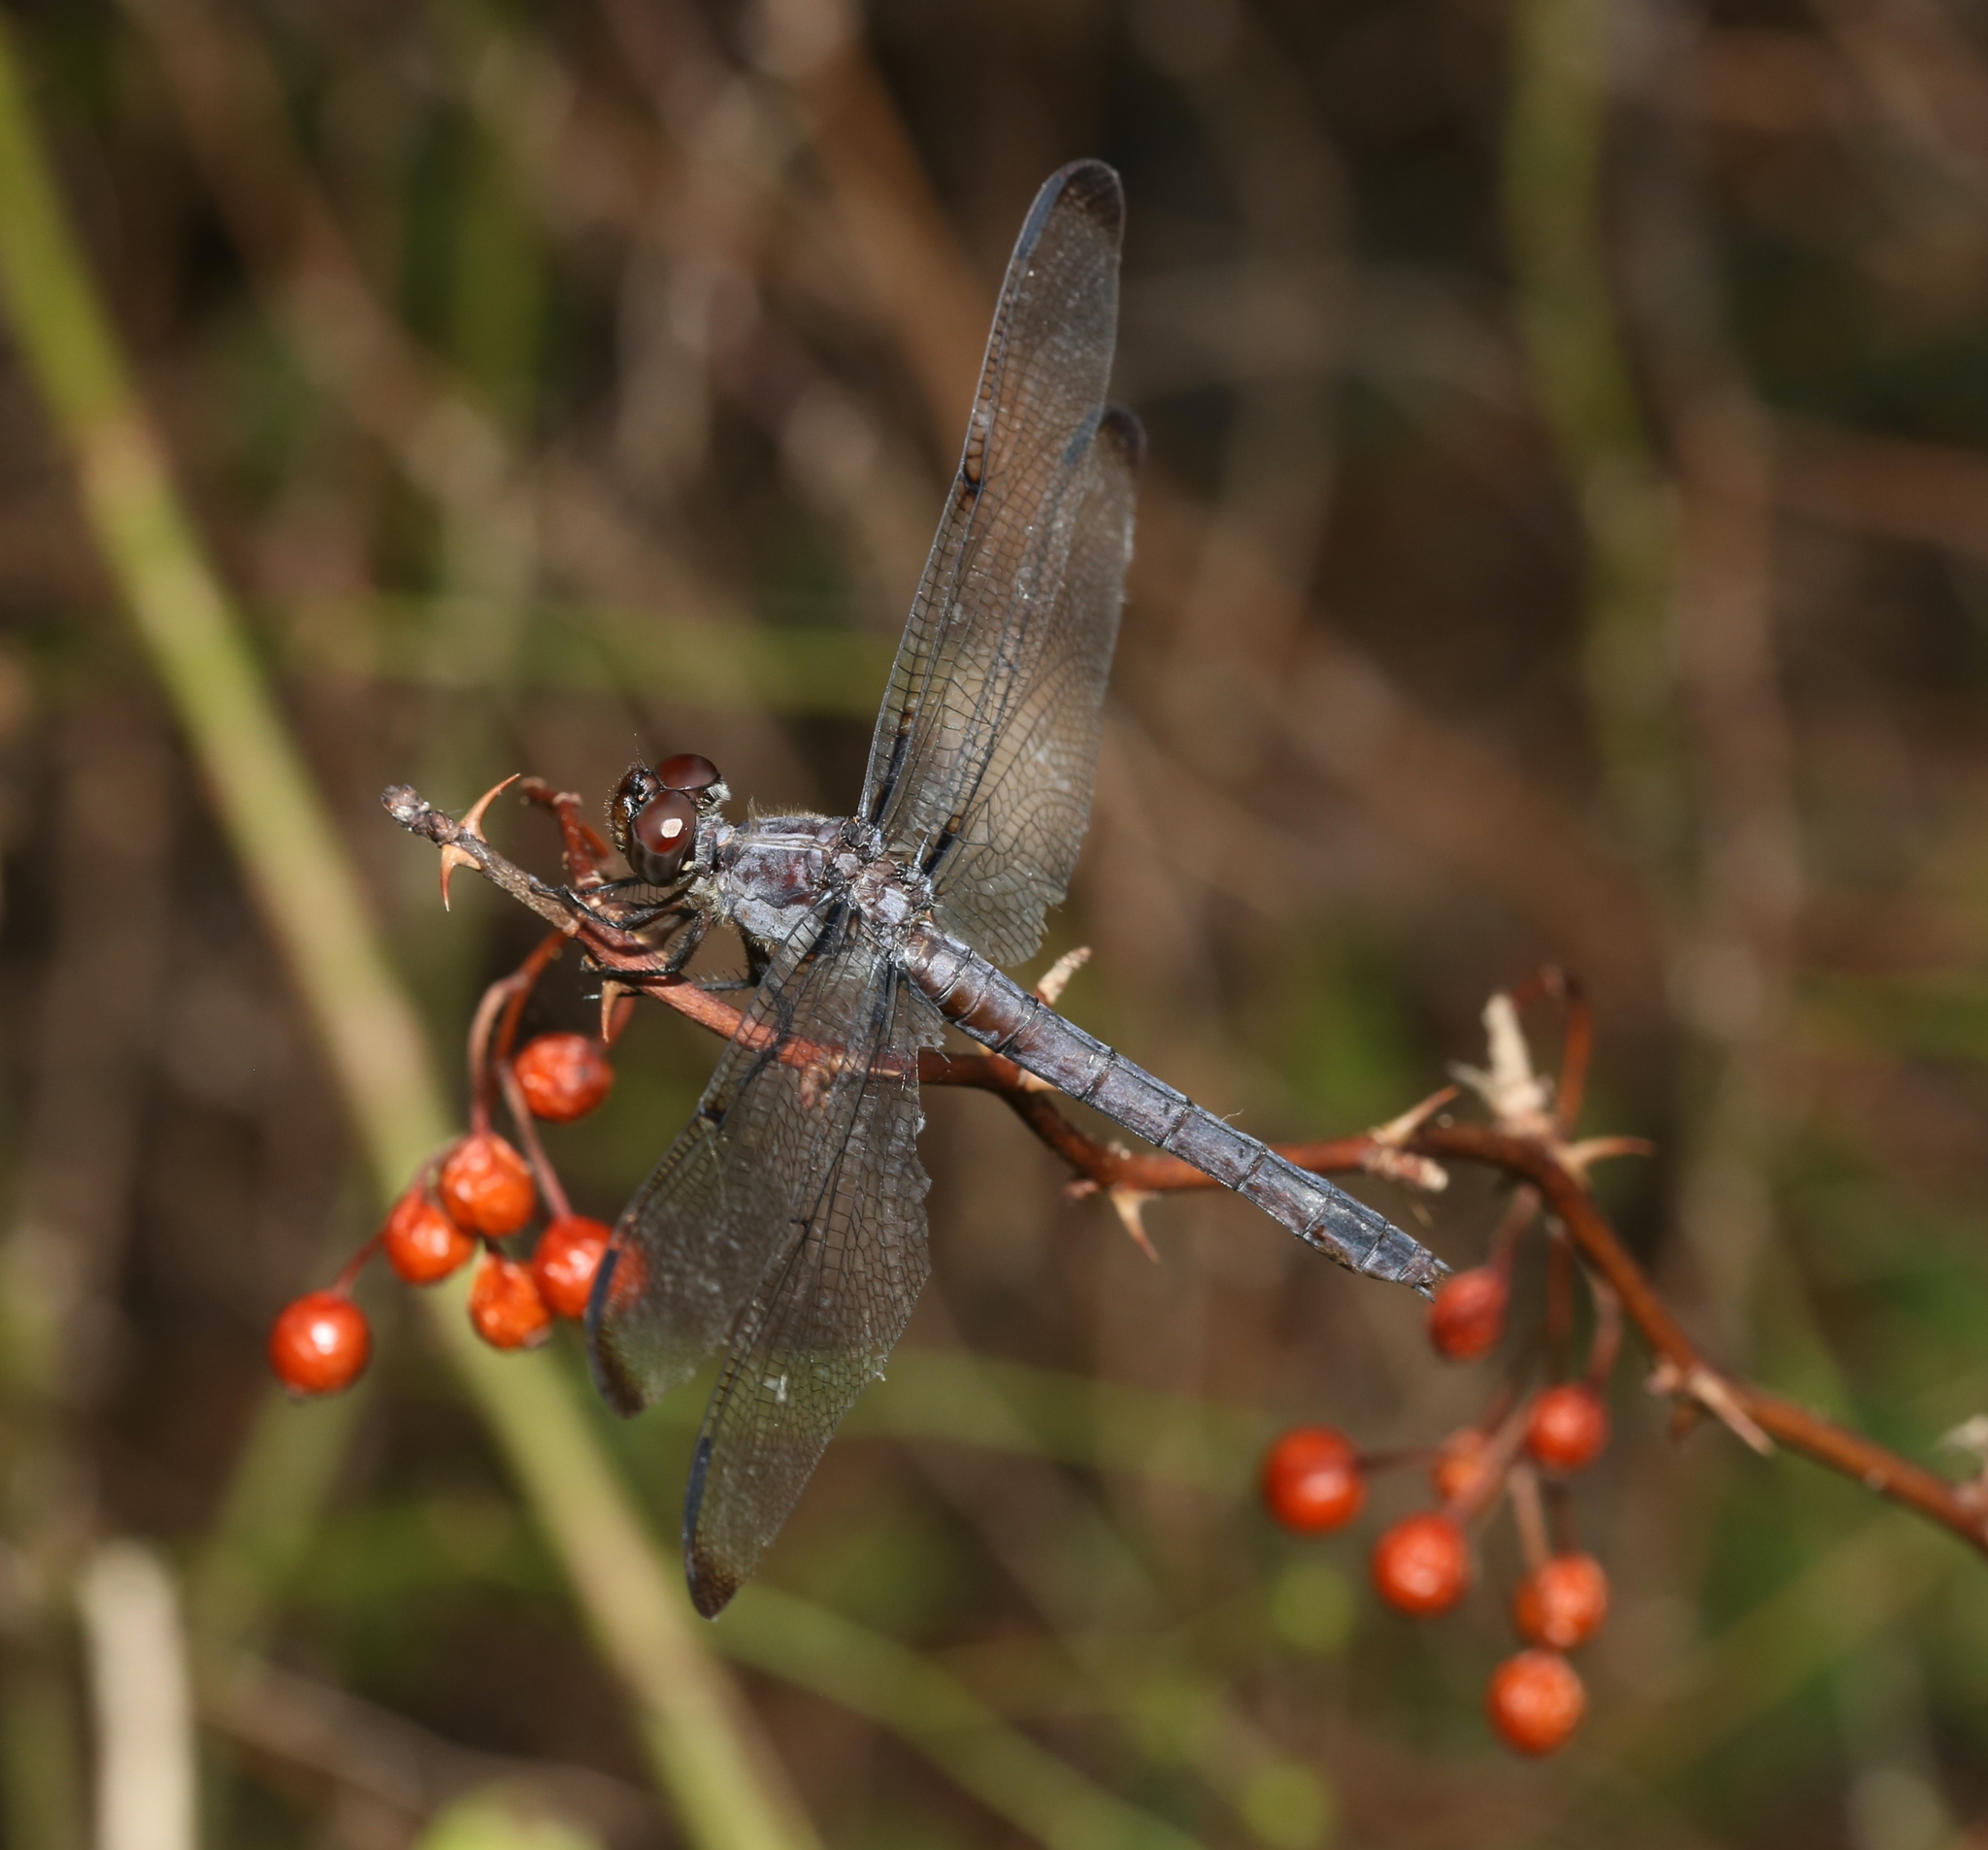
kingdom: Animalia
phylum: Arthropoda
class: Insecta
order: Odonata
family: Libellulidae
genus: Libellula
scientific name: Libellula incesta
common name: Slaty skimmer
